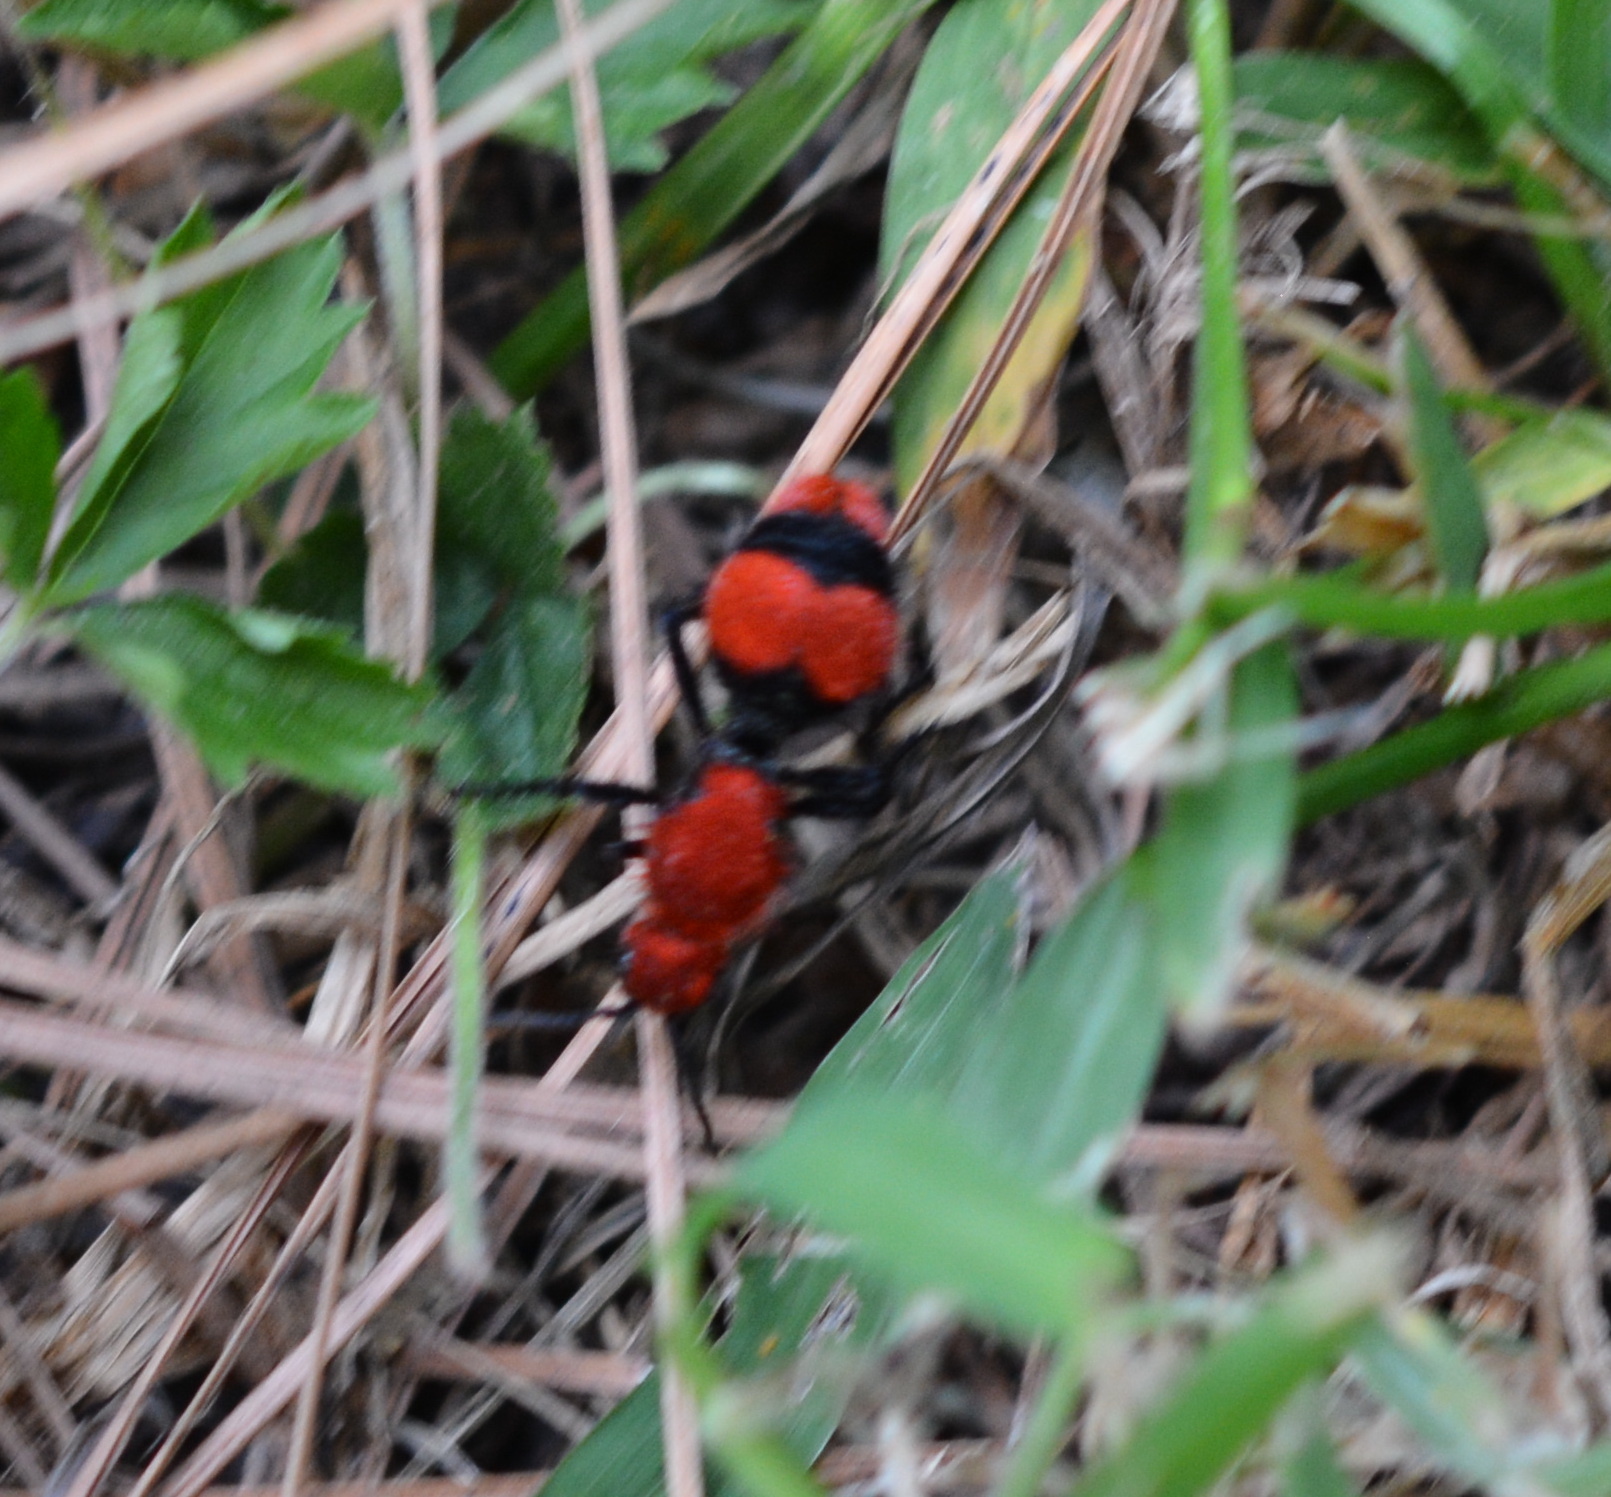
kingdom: Animalia
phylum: Arthropoda
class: Insecta
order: Hymenoptera
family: Mutillidae
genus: Dasymutilla
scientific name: Dasymutilla occidentalis
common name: Common eastern velvet ant
